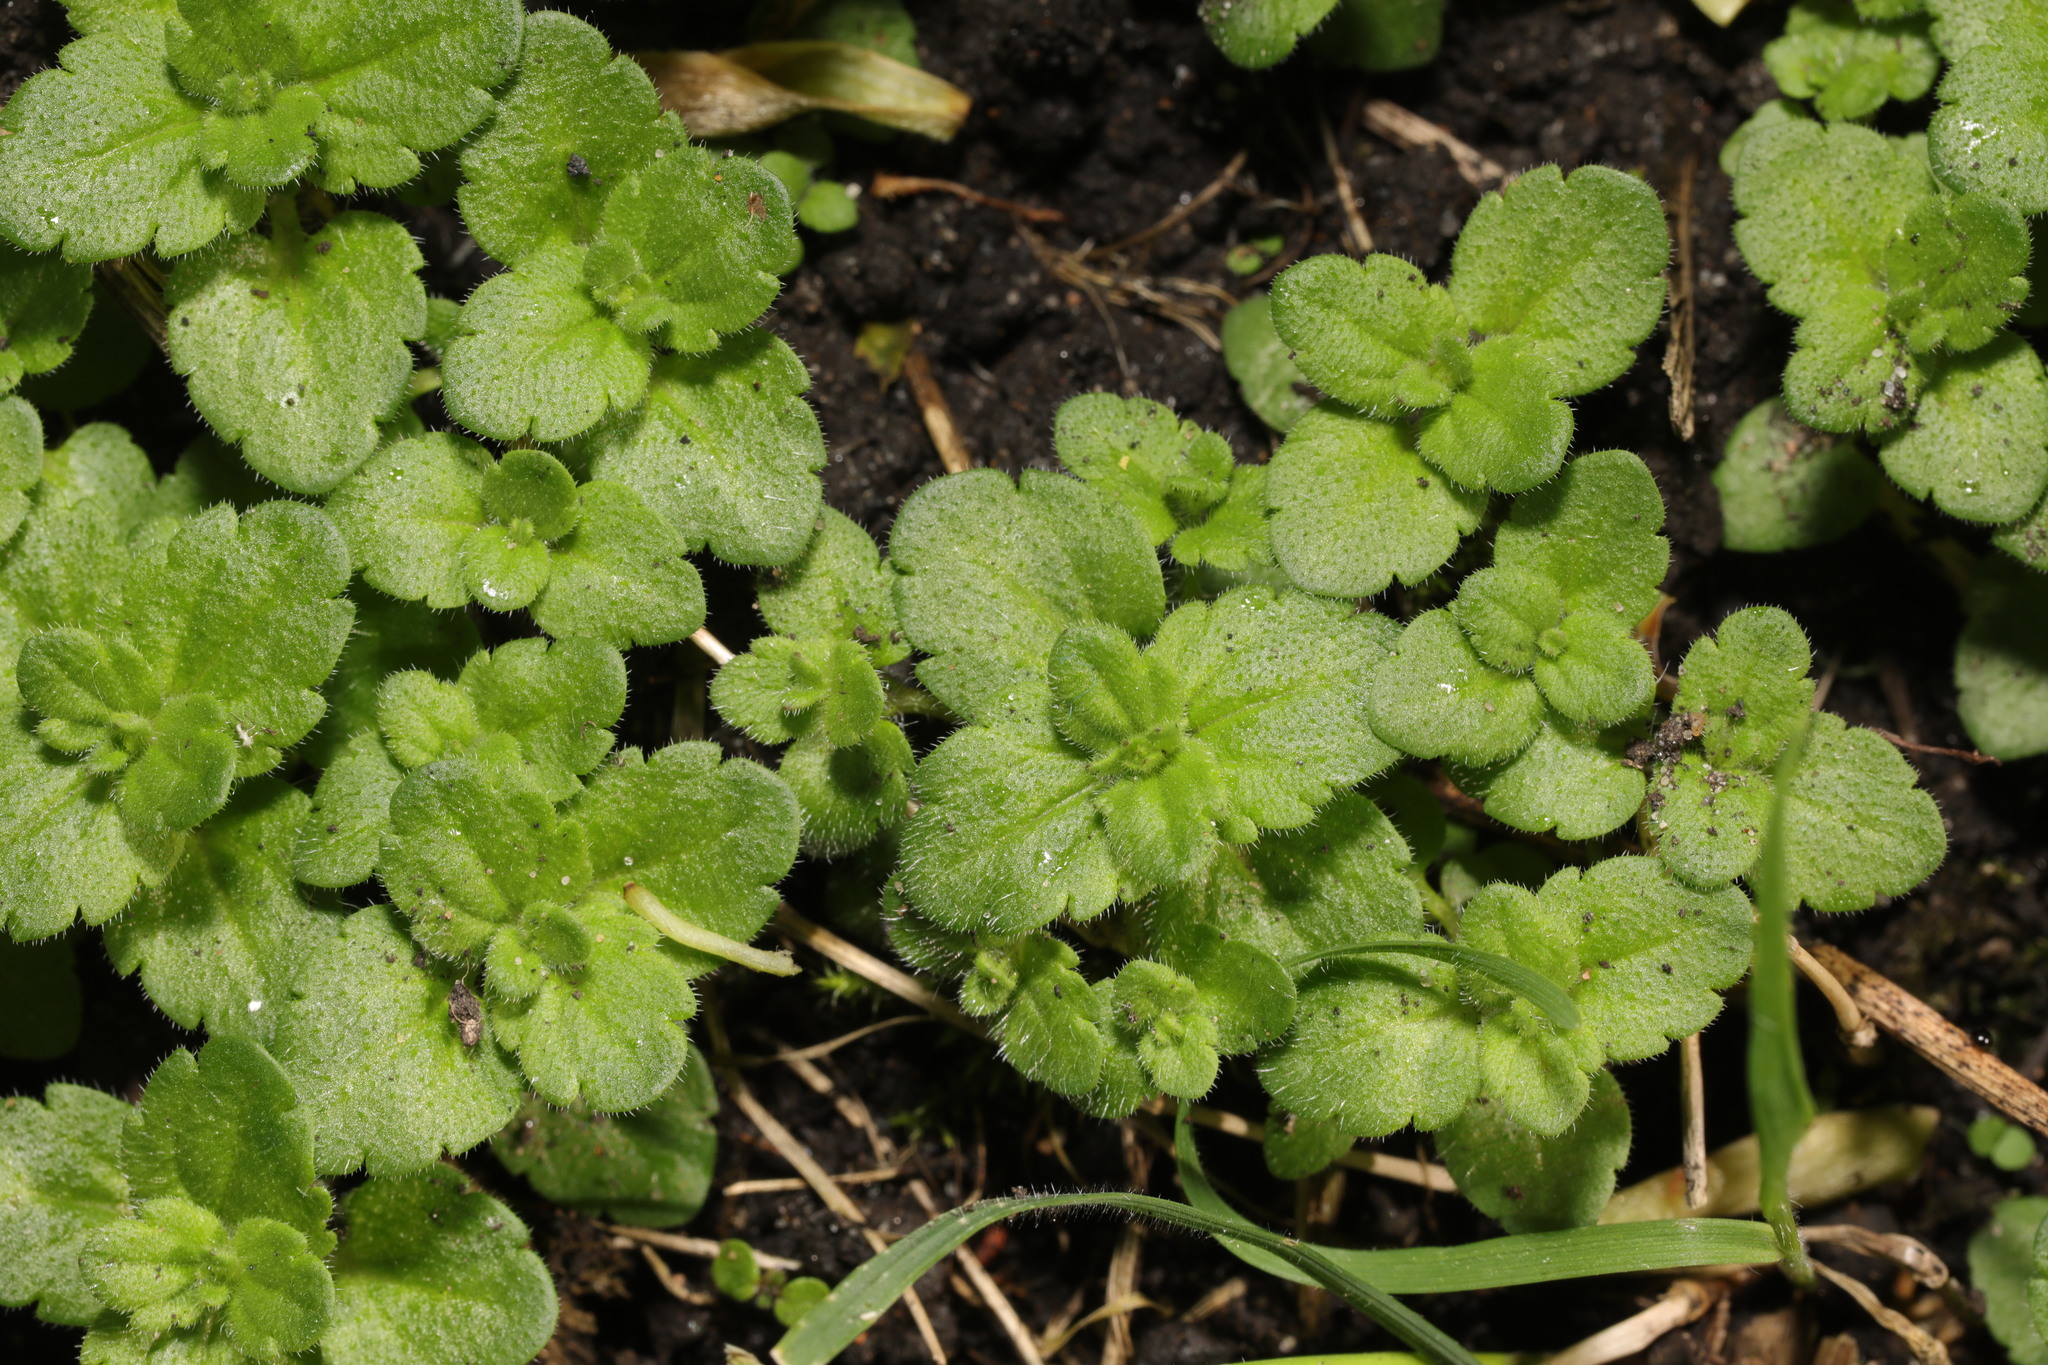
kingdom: Plantae
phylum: Tracheophyta
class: Magnoliopsida
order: Lamiales
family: Plantaginaceae
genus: Veronica
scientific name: Veronica arvensis
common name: Corn speedwell
